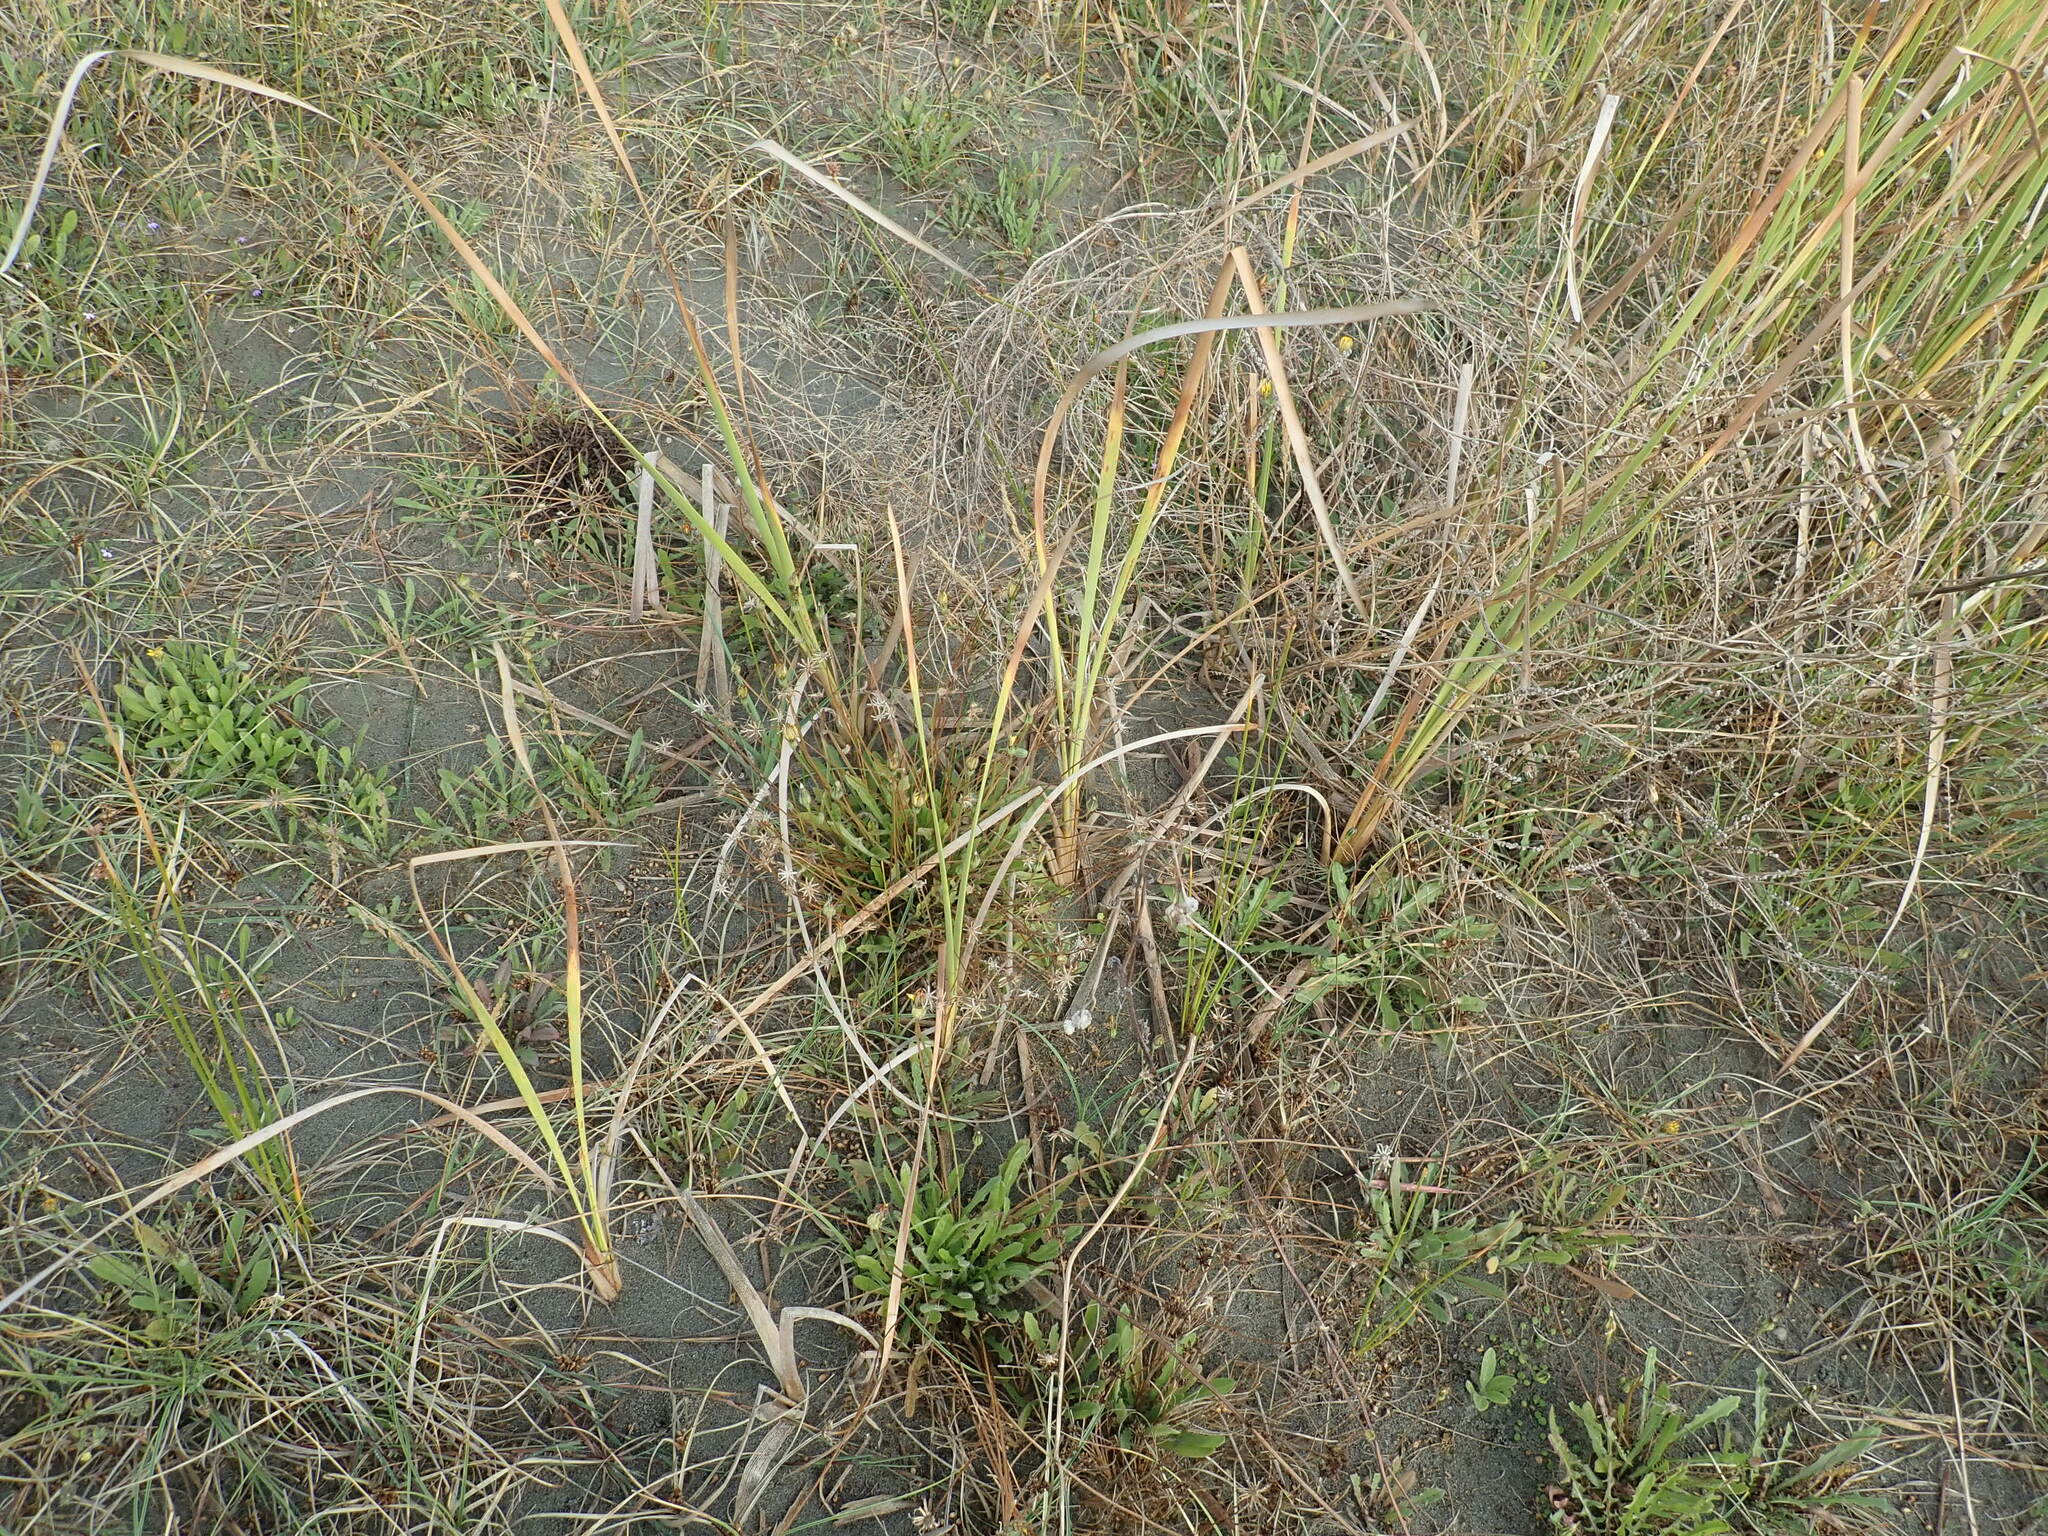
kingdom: Plantae
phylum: Tracheophyta
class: Liliopsida
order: Poales
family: Typhaceae
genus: Typha
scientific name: Typha orientalis
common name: Bullrush
